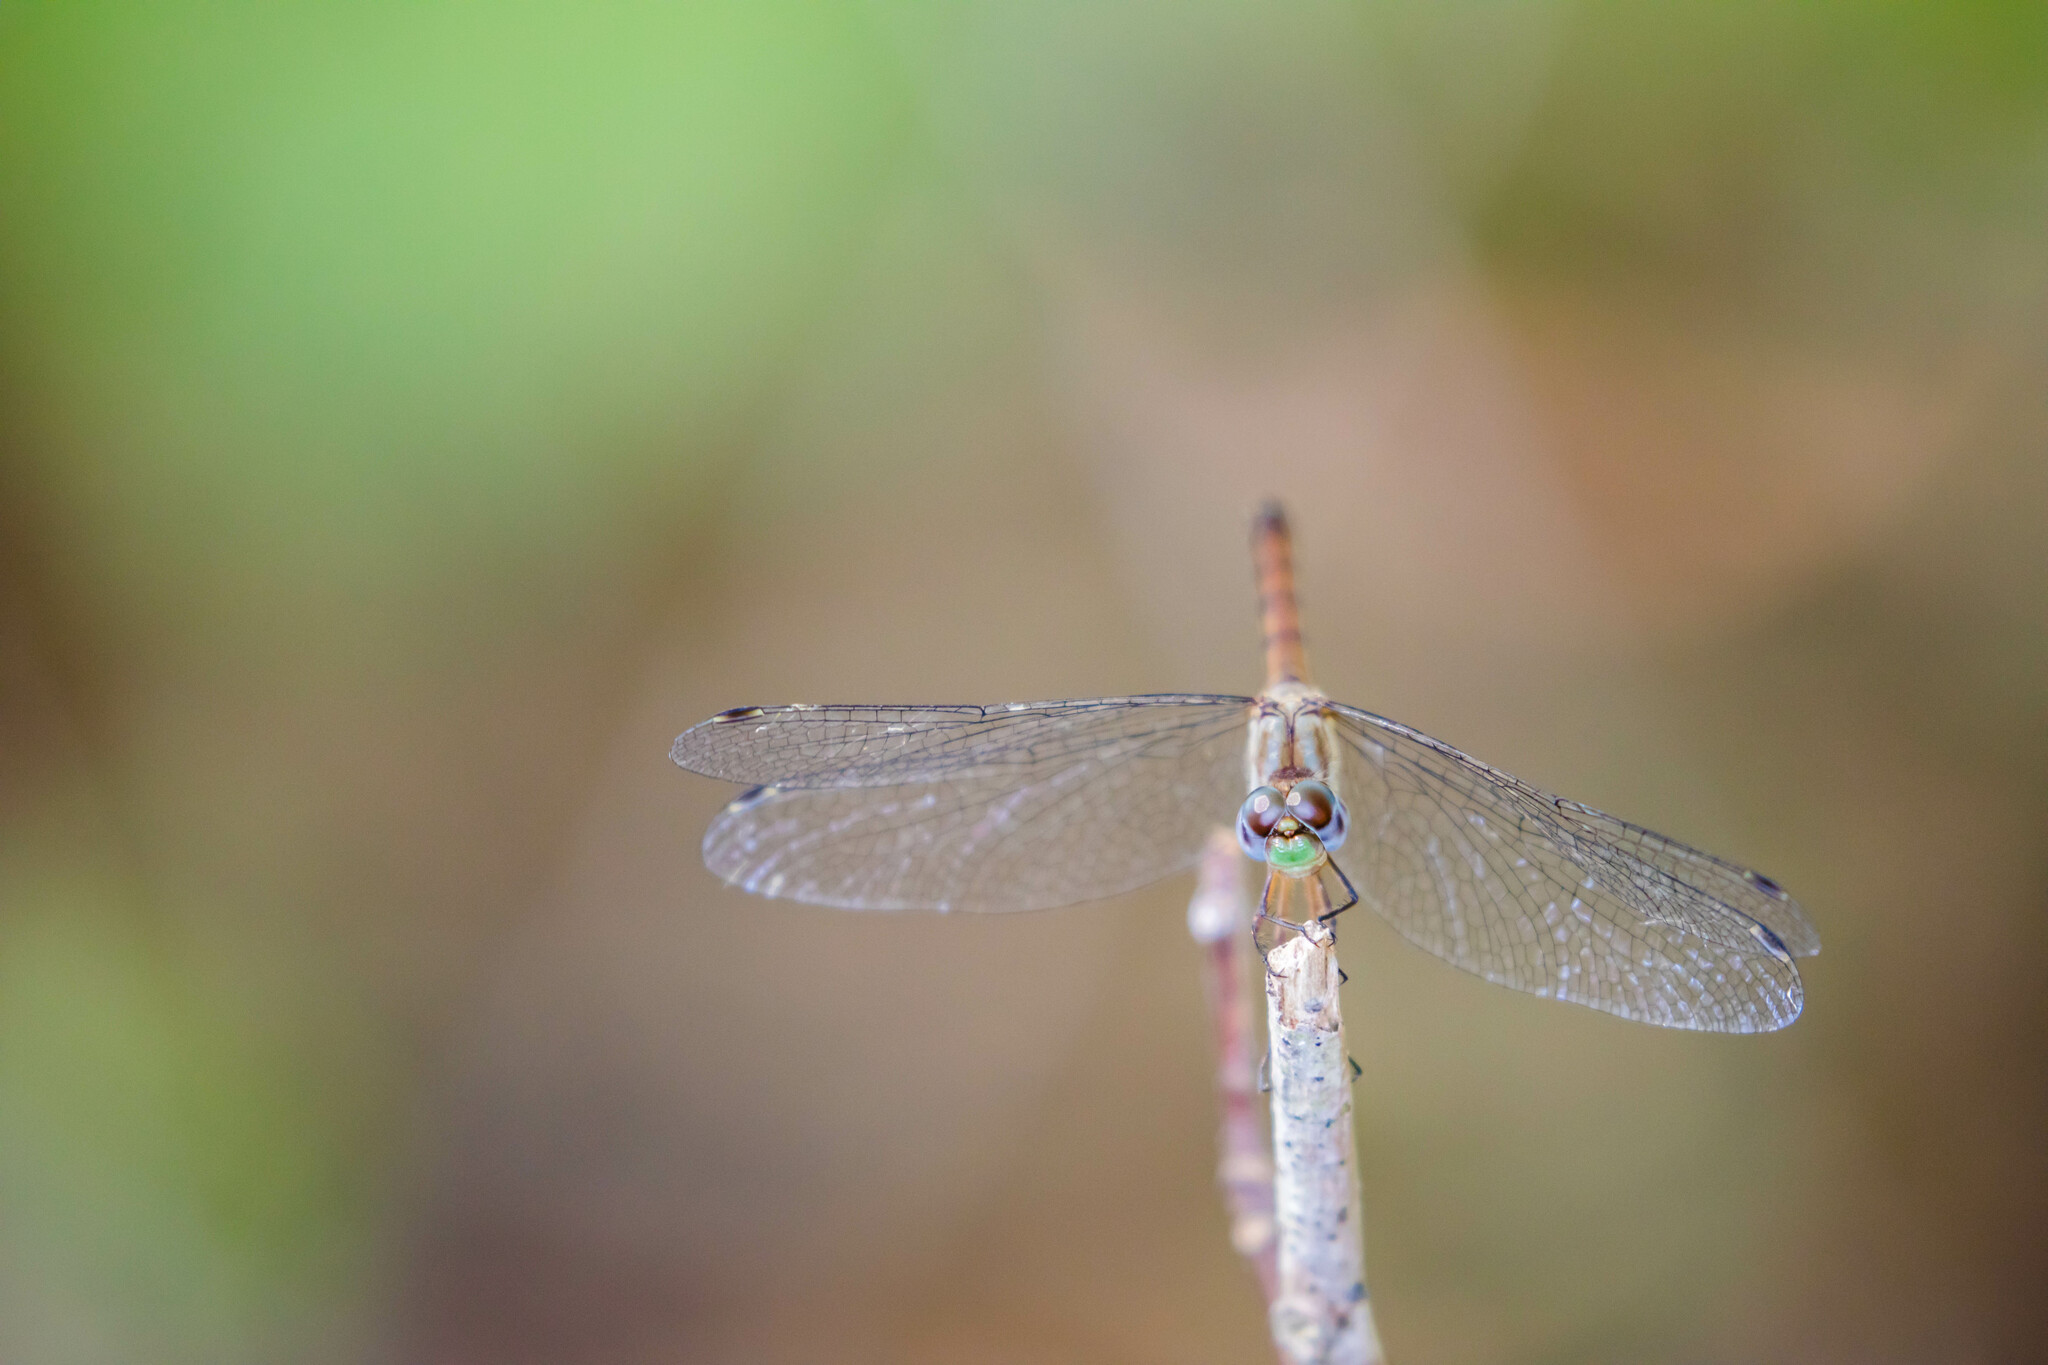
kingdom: Animalia
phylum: Arthropoda
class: Insecta
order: Odonata
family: Libellulidae
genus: Sympetrum
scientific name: Sympetrum ambiguum
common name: Blue-faced meadowhawk
